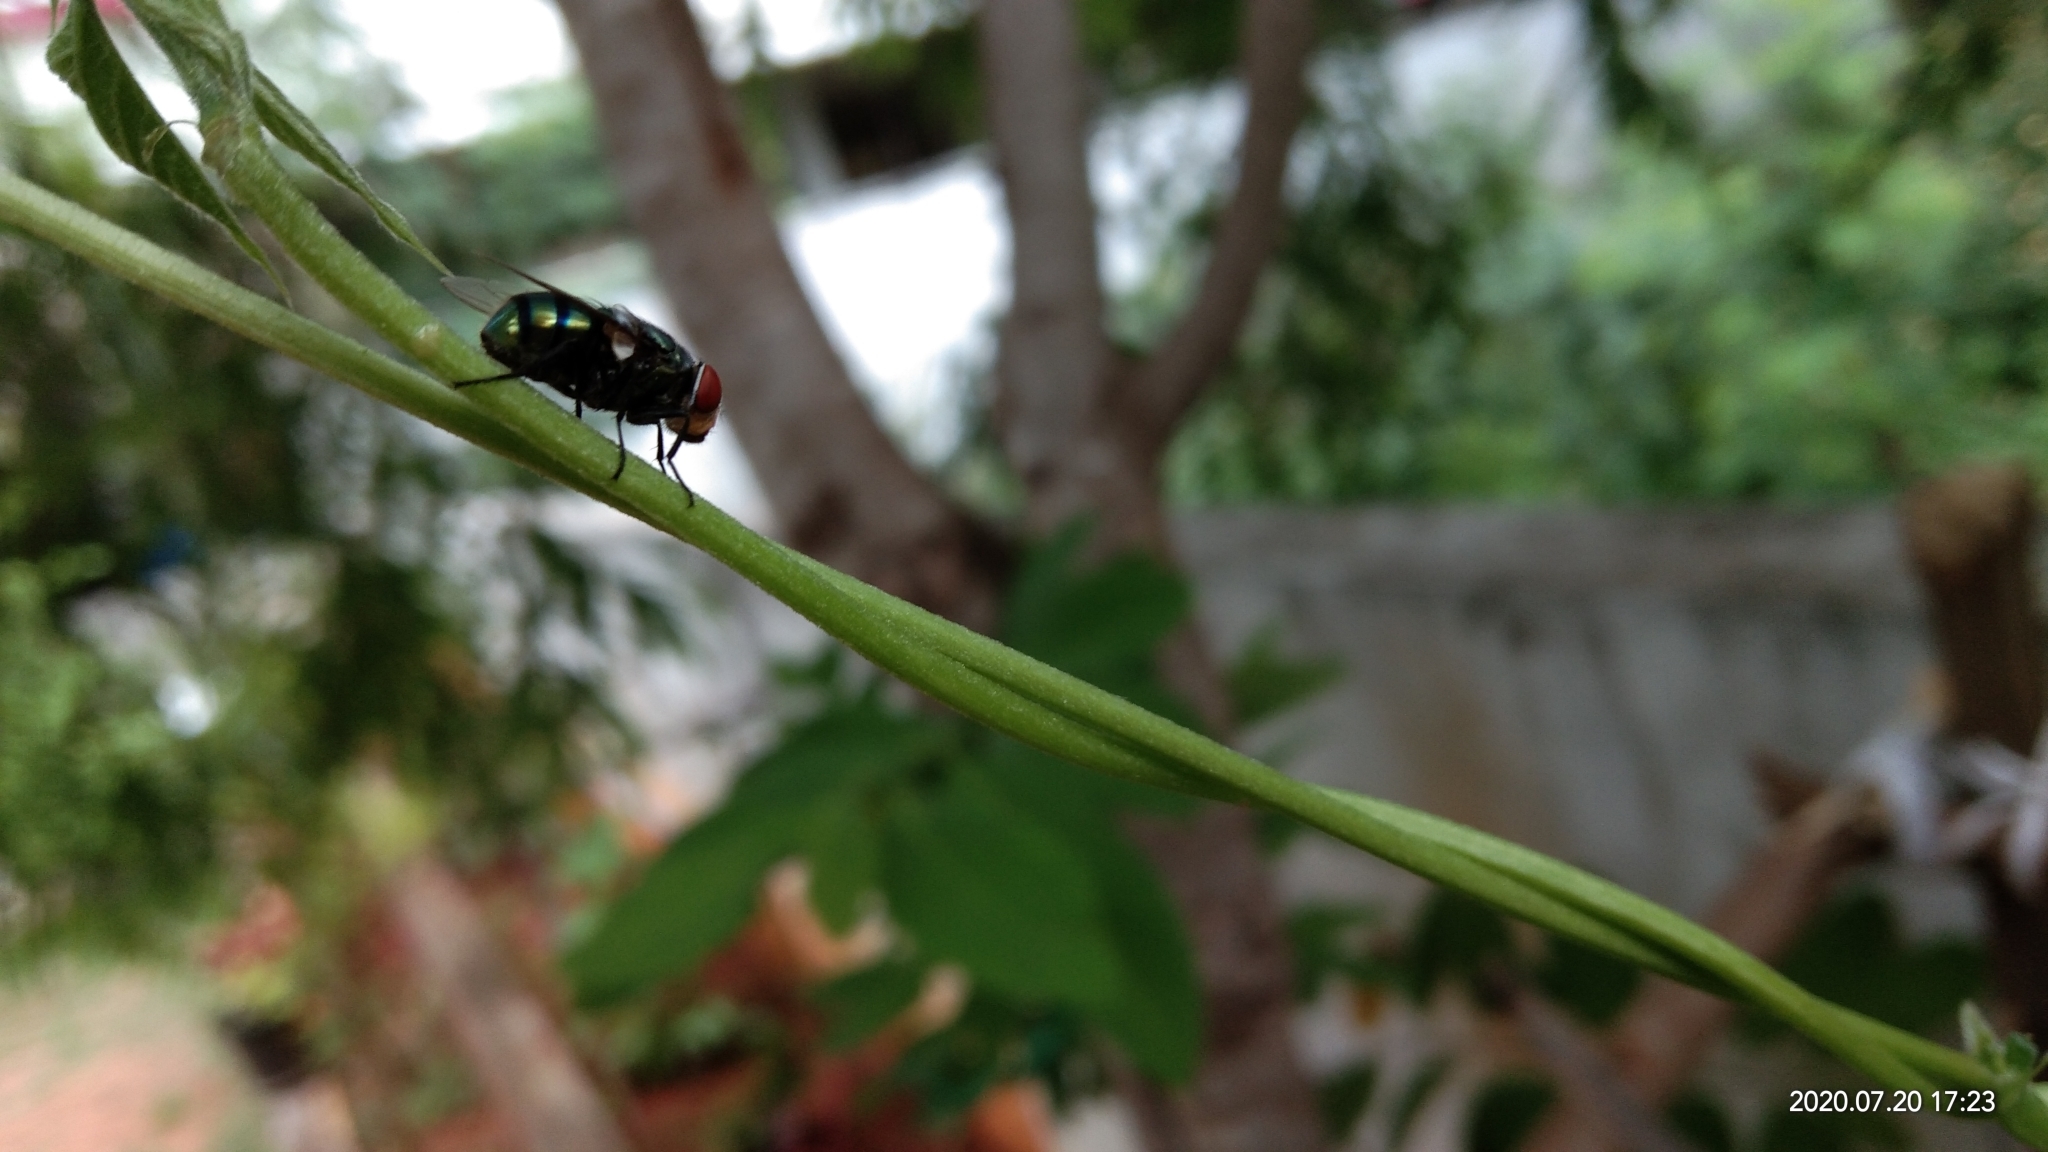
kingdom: Animalia
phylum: Arthropoda
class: Insecta
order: Diptera
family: Calliphoridae
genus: Chrysomya
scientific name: Chrysomya megacephala
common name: Blow fly
